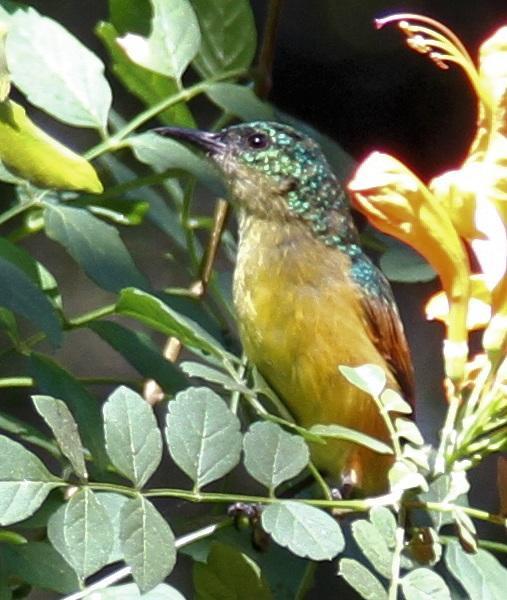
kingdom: Animalia
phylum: Chordata
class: Aves
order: Passeriformes
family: Nectariniidae
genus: Hedydipna
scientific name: Hedydipna collaris
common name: Collared sunbird
